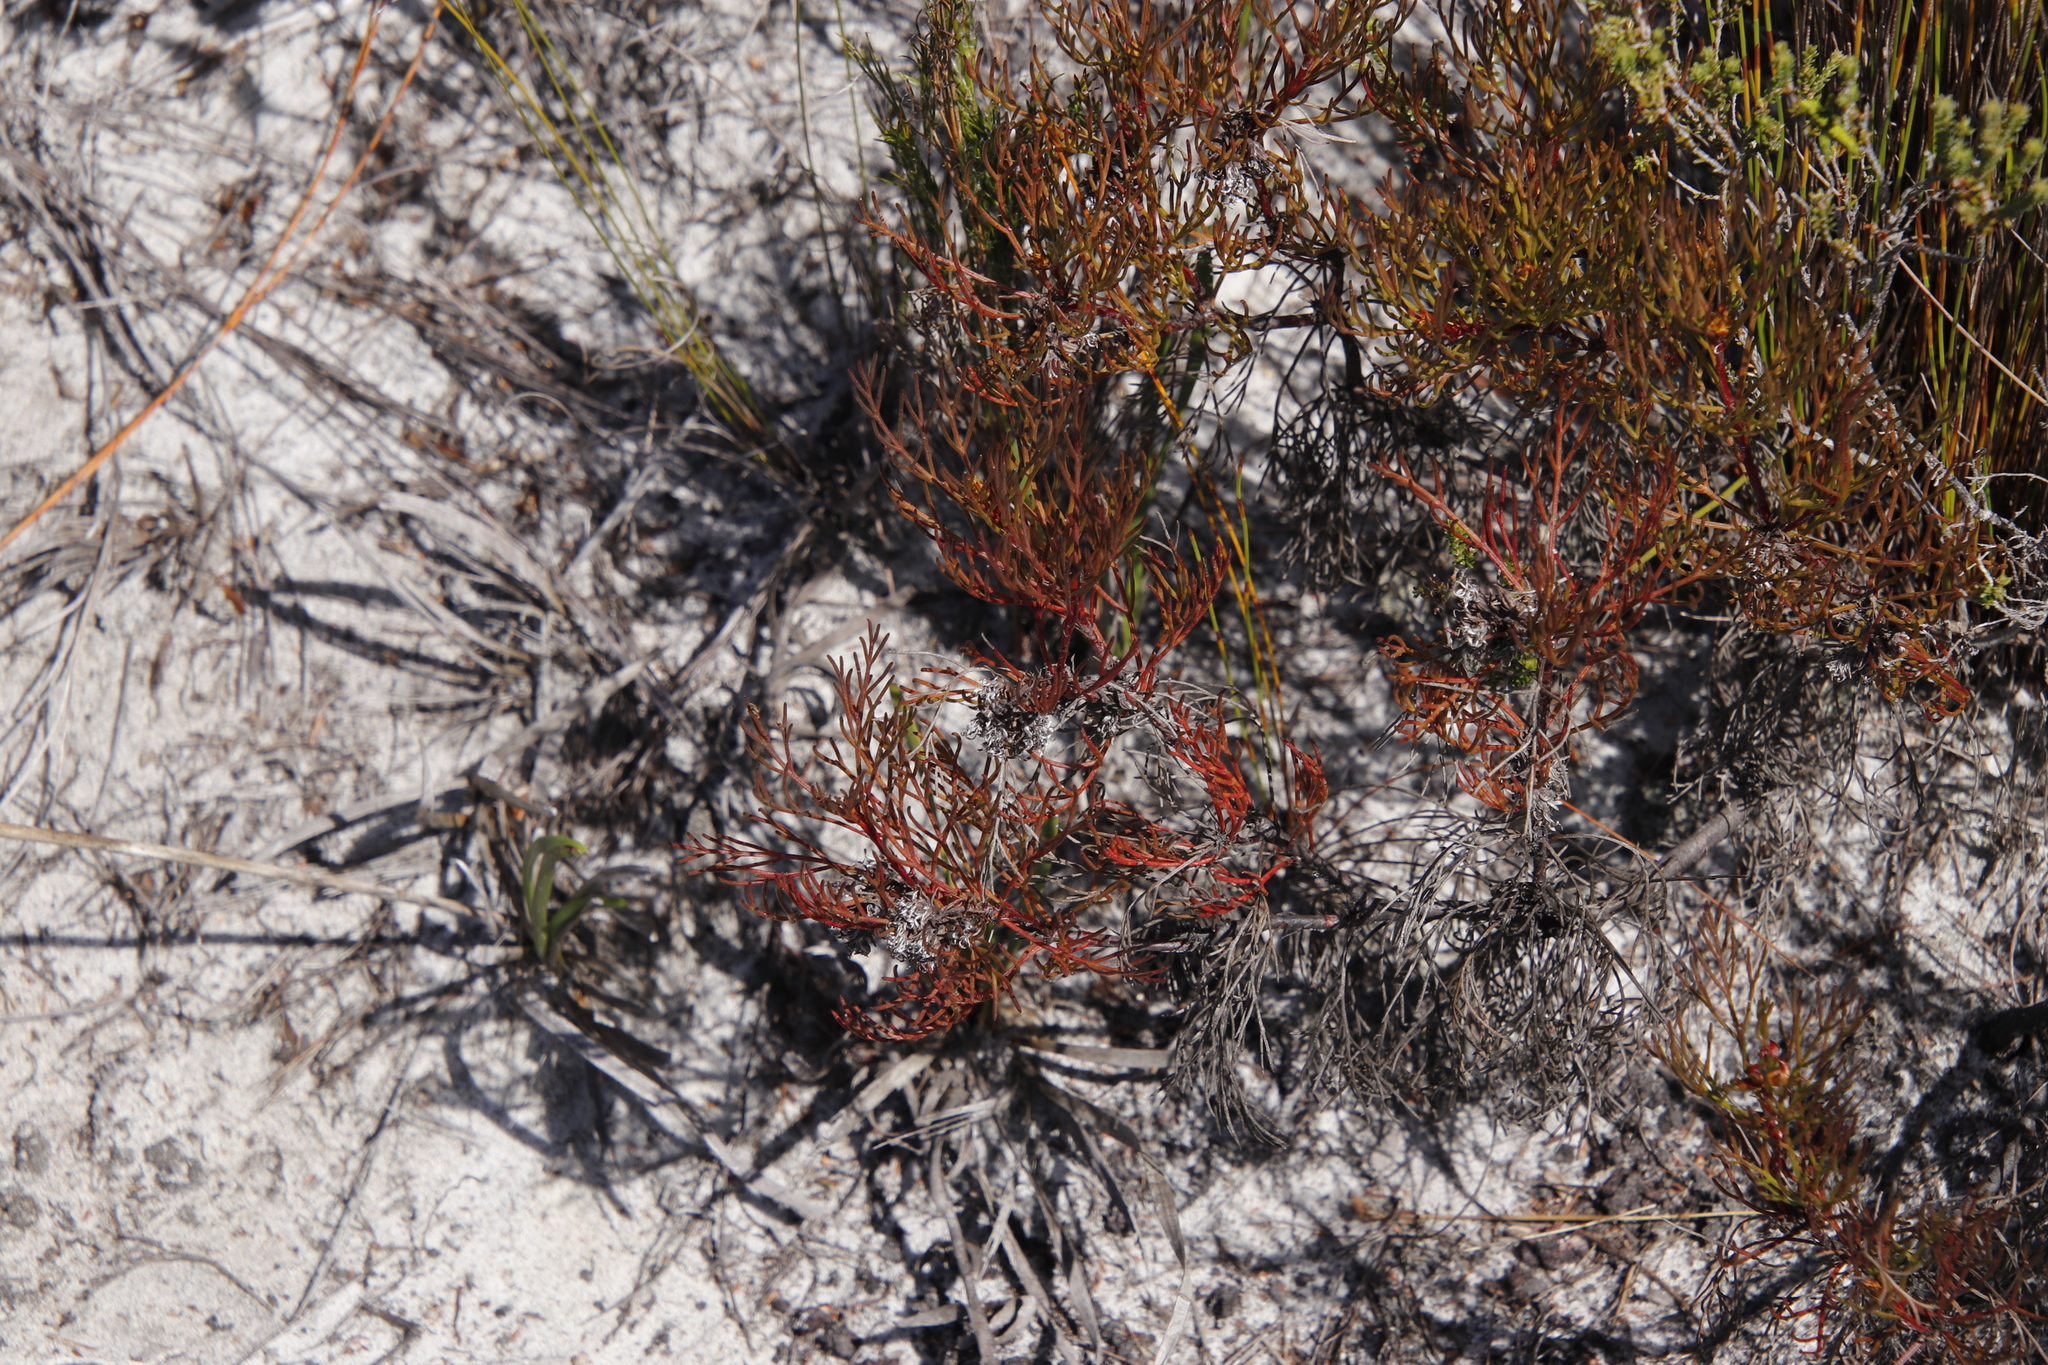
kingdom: Plantae
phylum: Tracheophyta
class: Magnoliopsida
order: Proteales
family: Proteaceae
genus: Serruria
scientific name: Serruria bolusii
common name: Agulhas spiderhead
